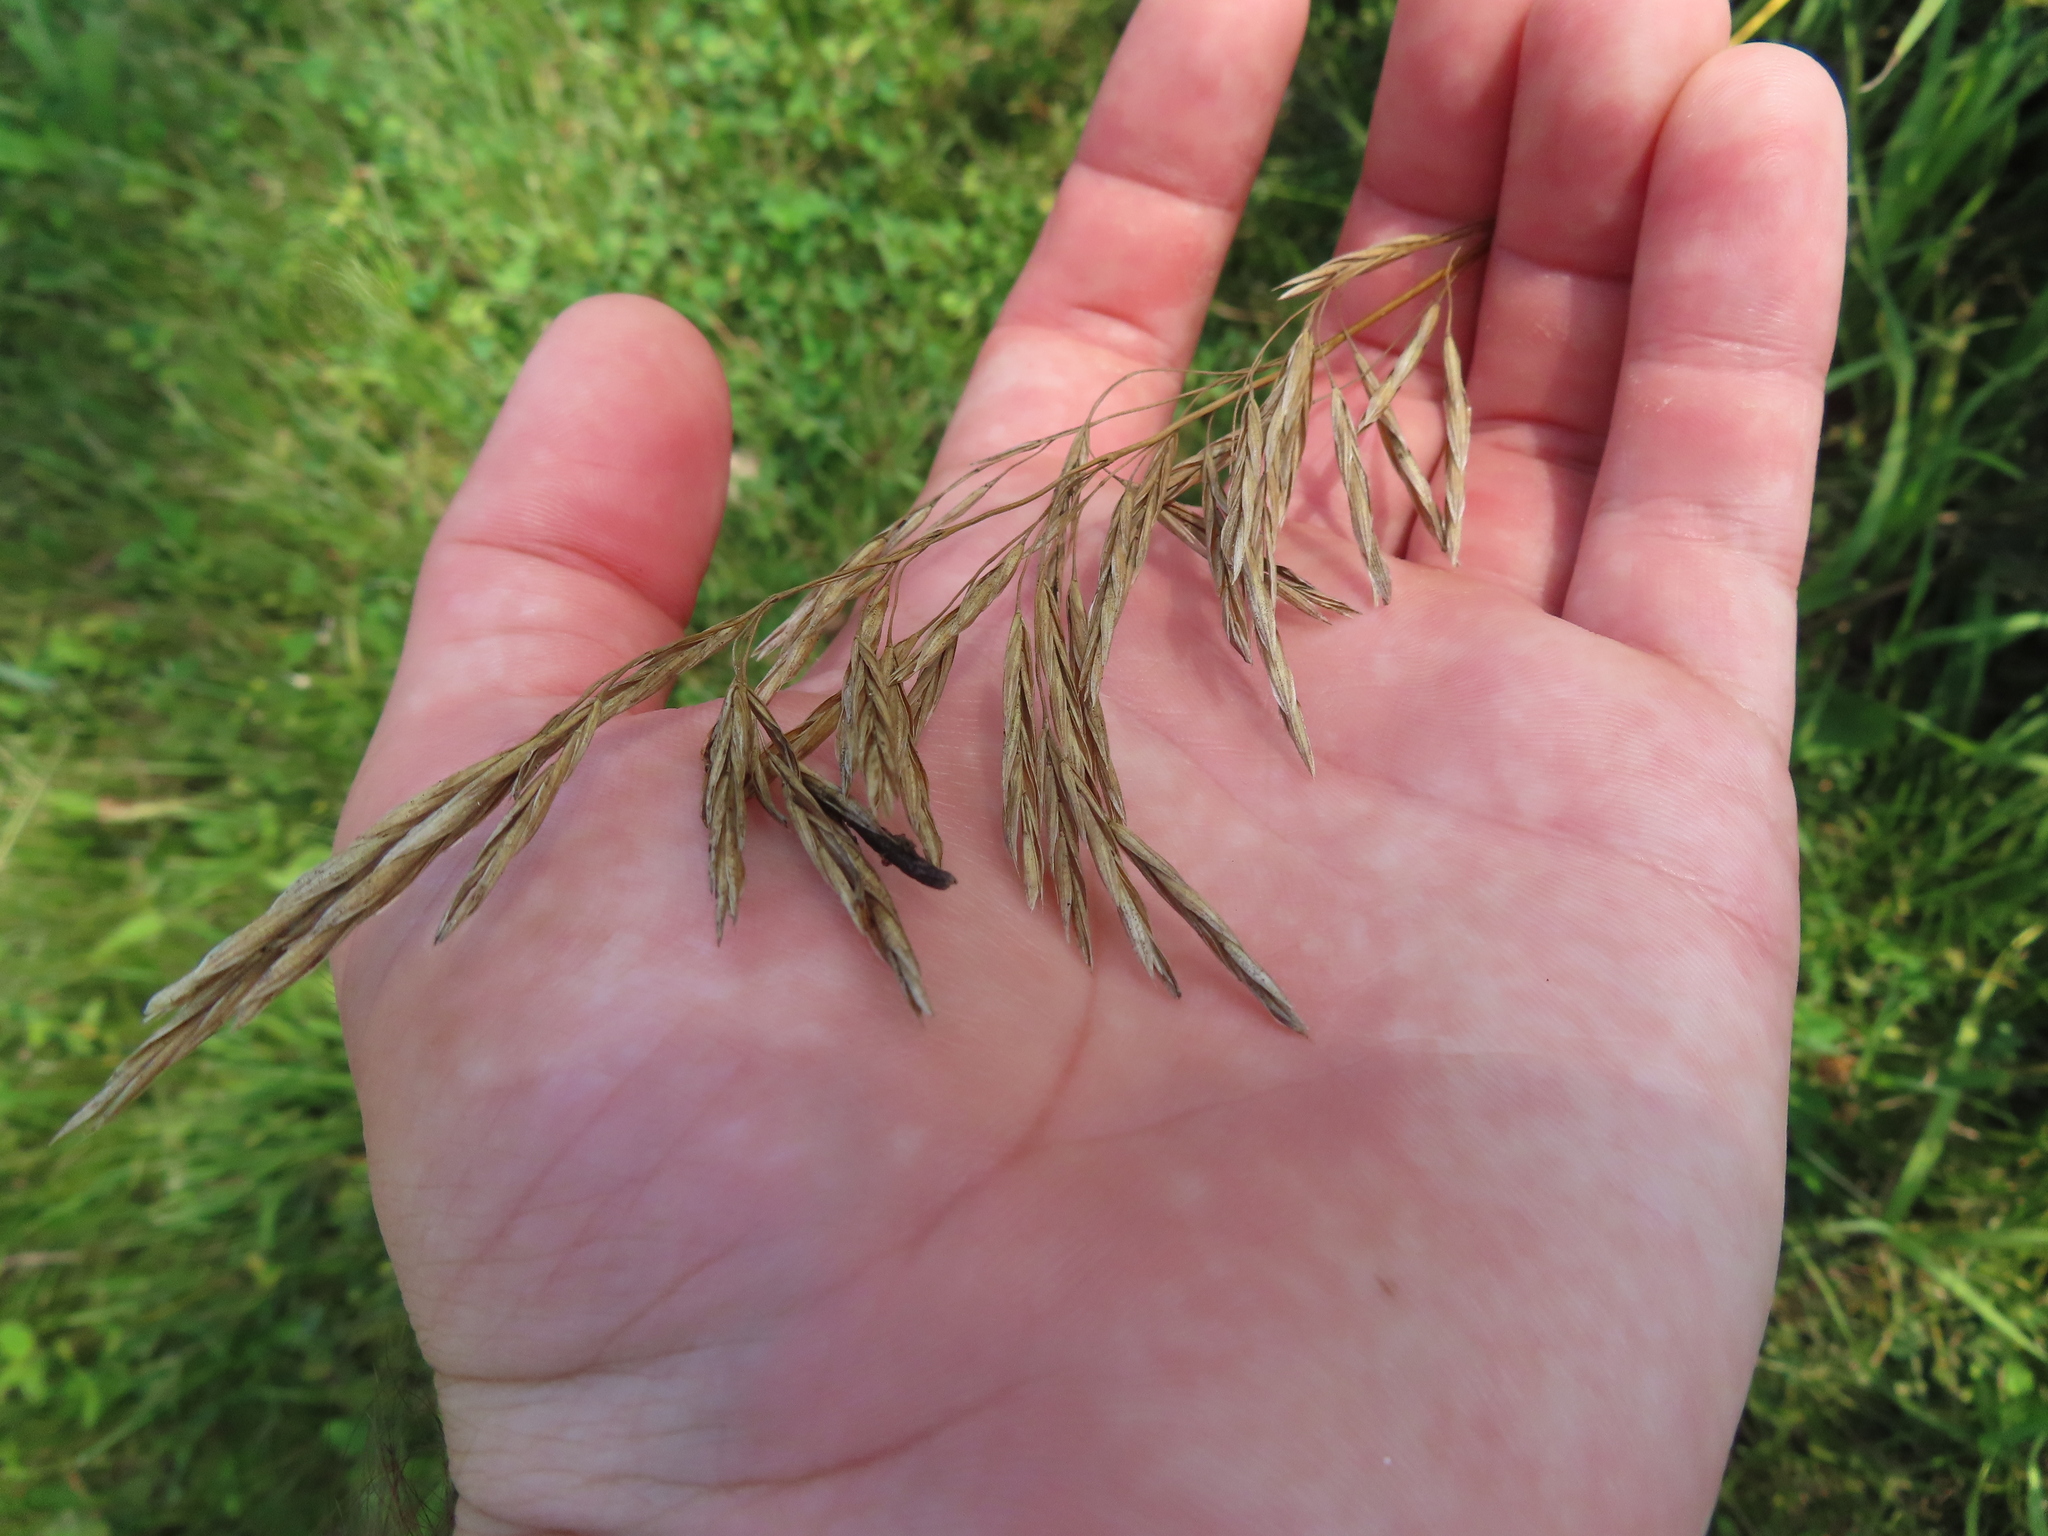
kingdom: Plantae
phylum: Tracheophyta
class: Liliopsida
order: Poales
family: Poaceae
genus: Bromus
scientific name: Bromus inermis
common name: Smooth brome
